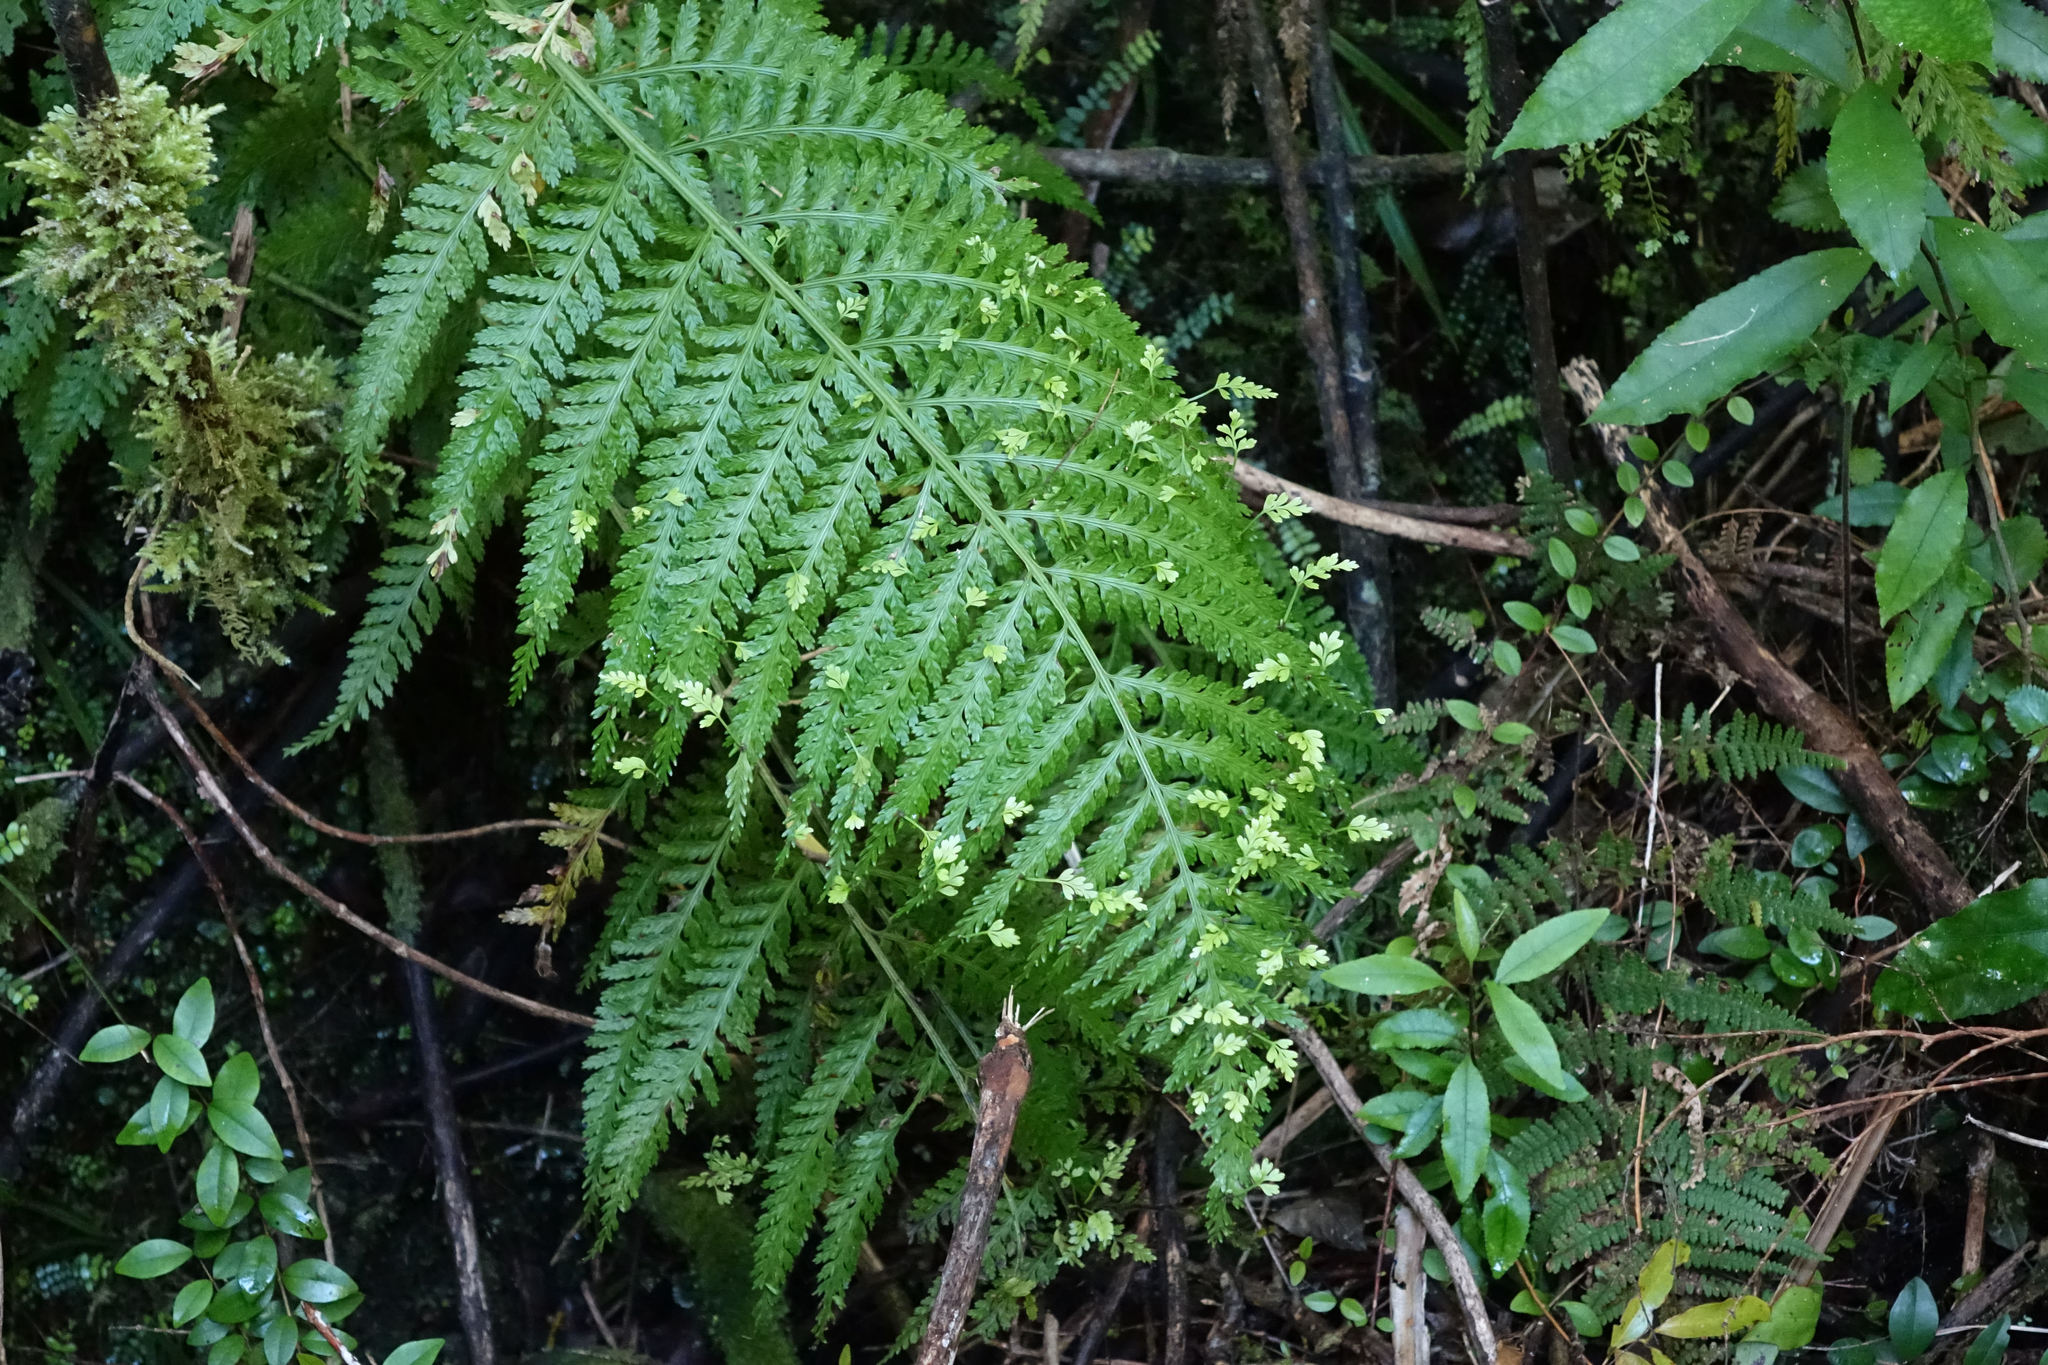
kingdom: Plantae
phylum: Tracheophyta
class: Polypodiopsida
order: Polypodiales
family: Aspleniaceae
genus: Asplenium
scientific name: Asplenium bulbiferum
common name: Mother fern
